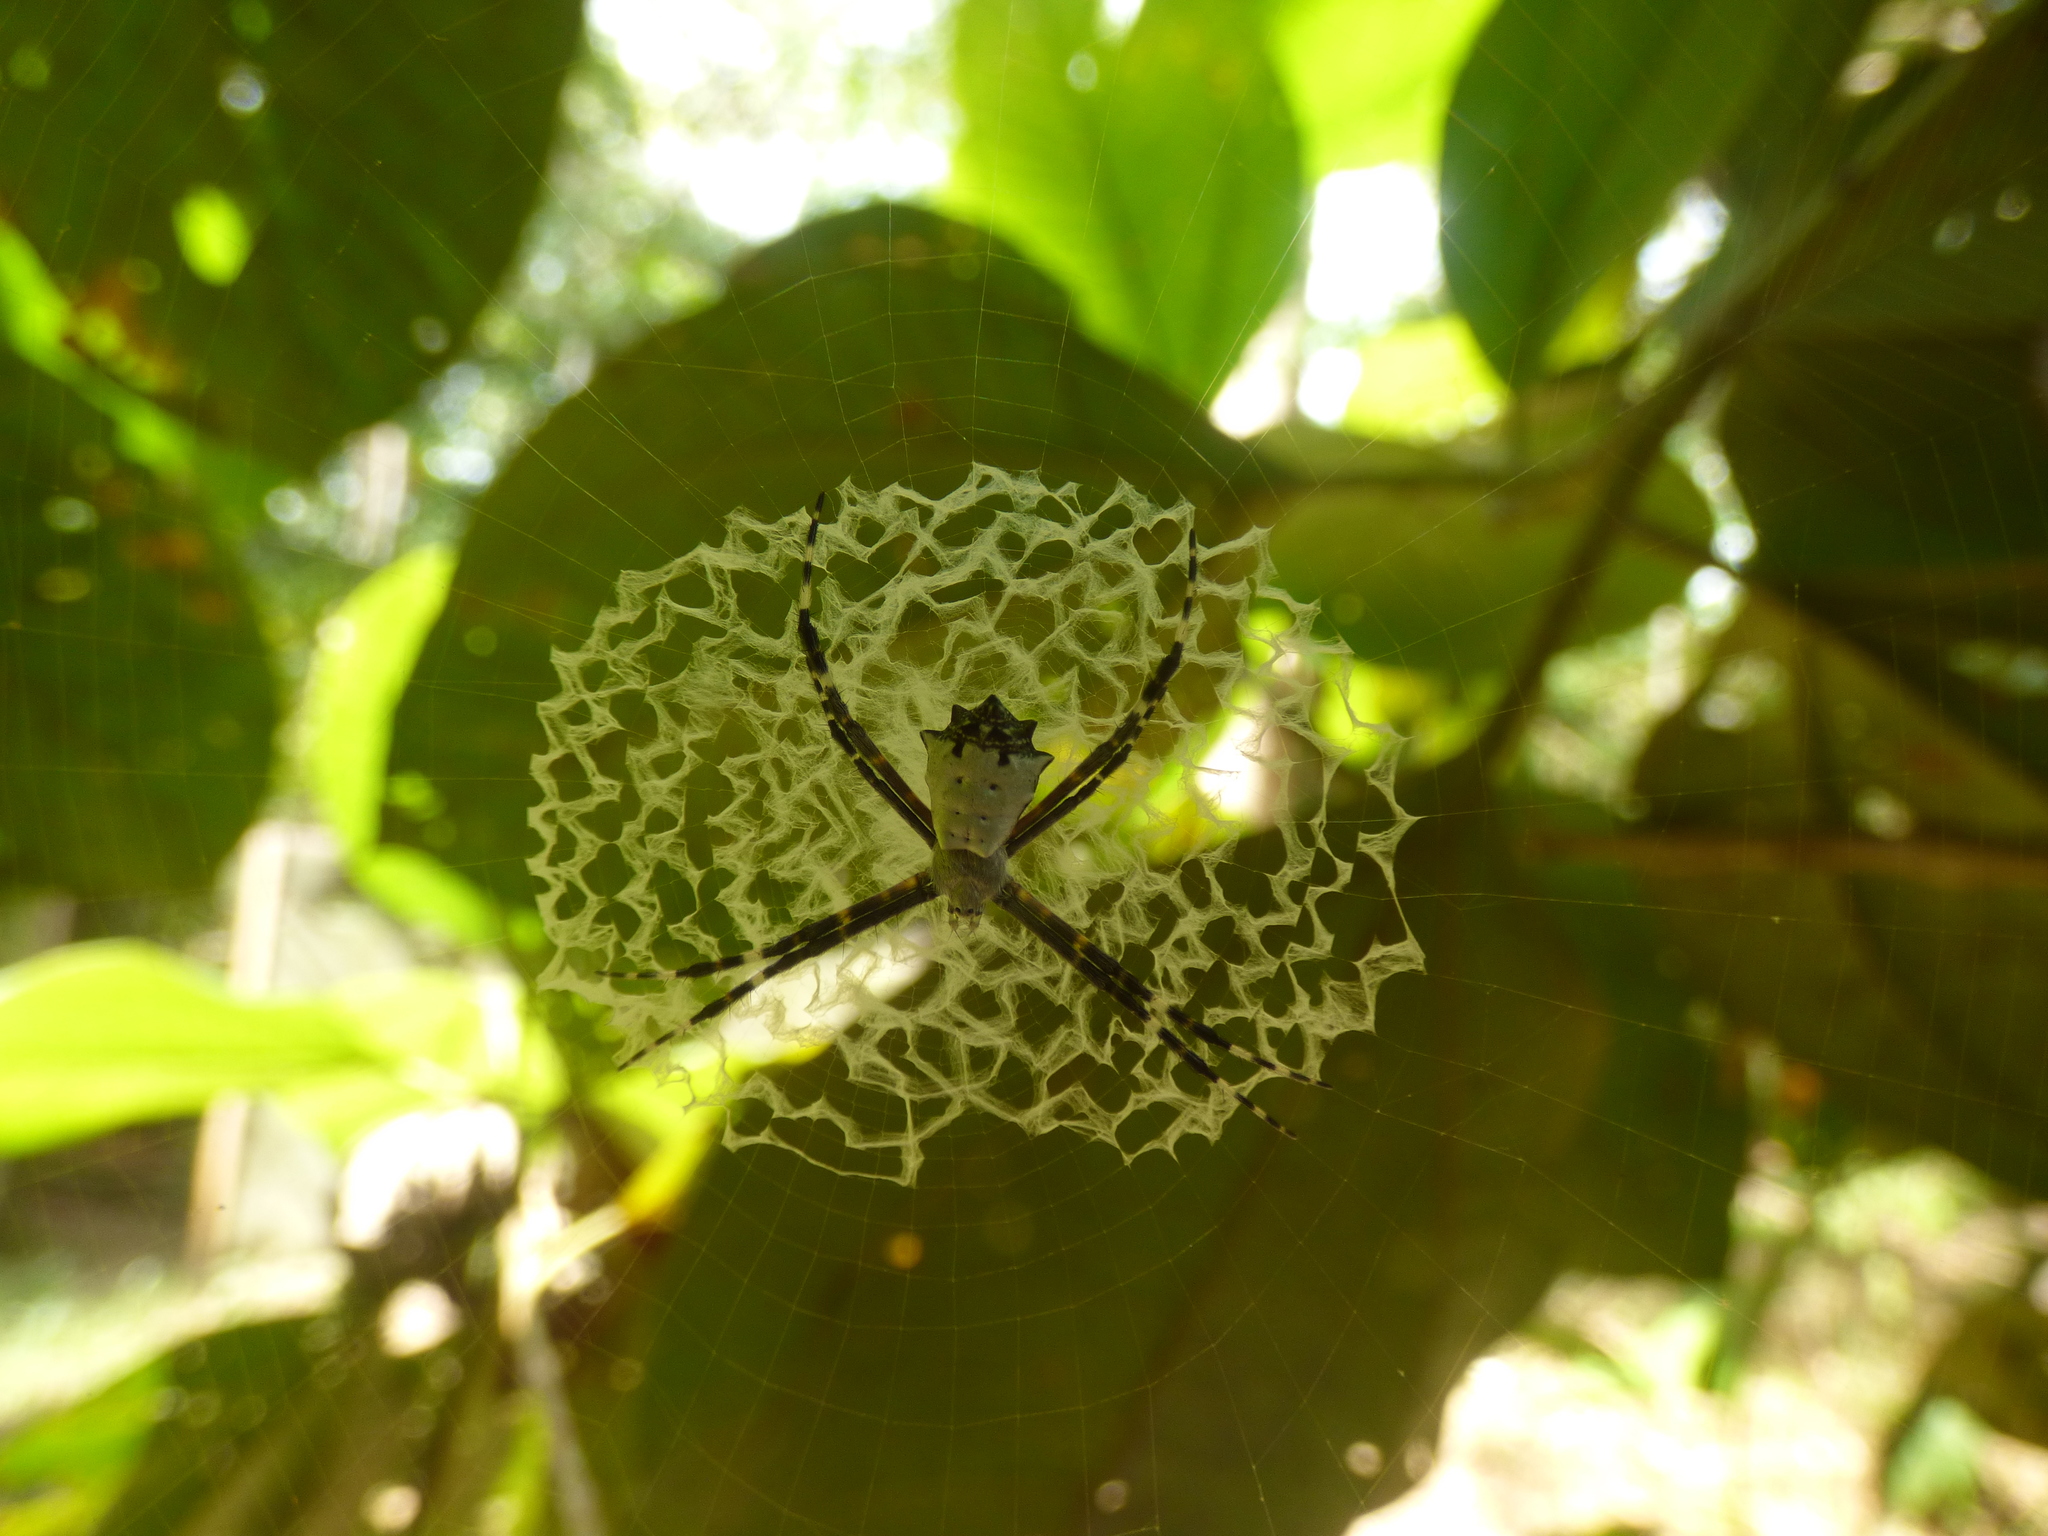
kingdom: Animalia
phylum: Arthropoda
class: Arachnida
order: Araneae
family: Araneidae
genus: Argiope
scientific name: Argiope submaronica
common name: Orb weavers
